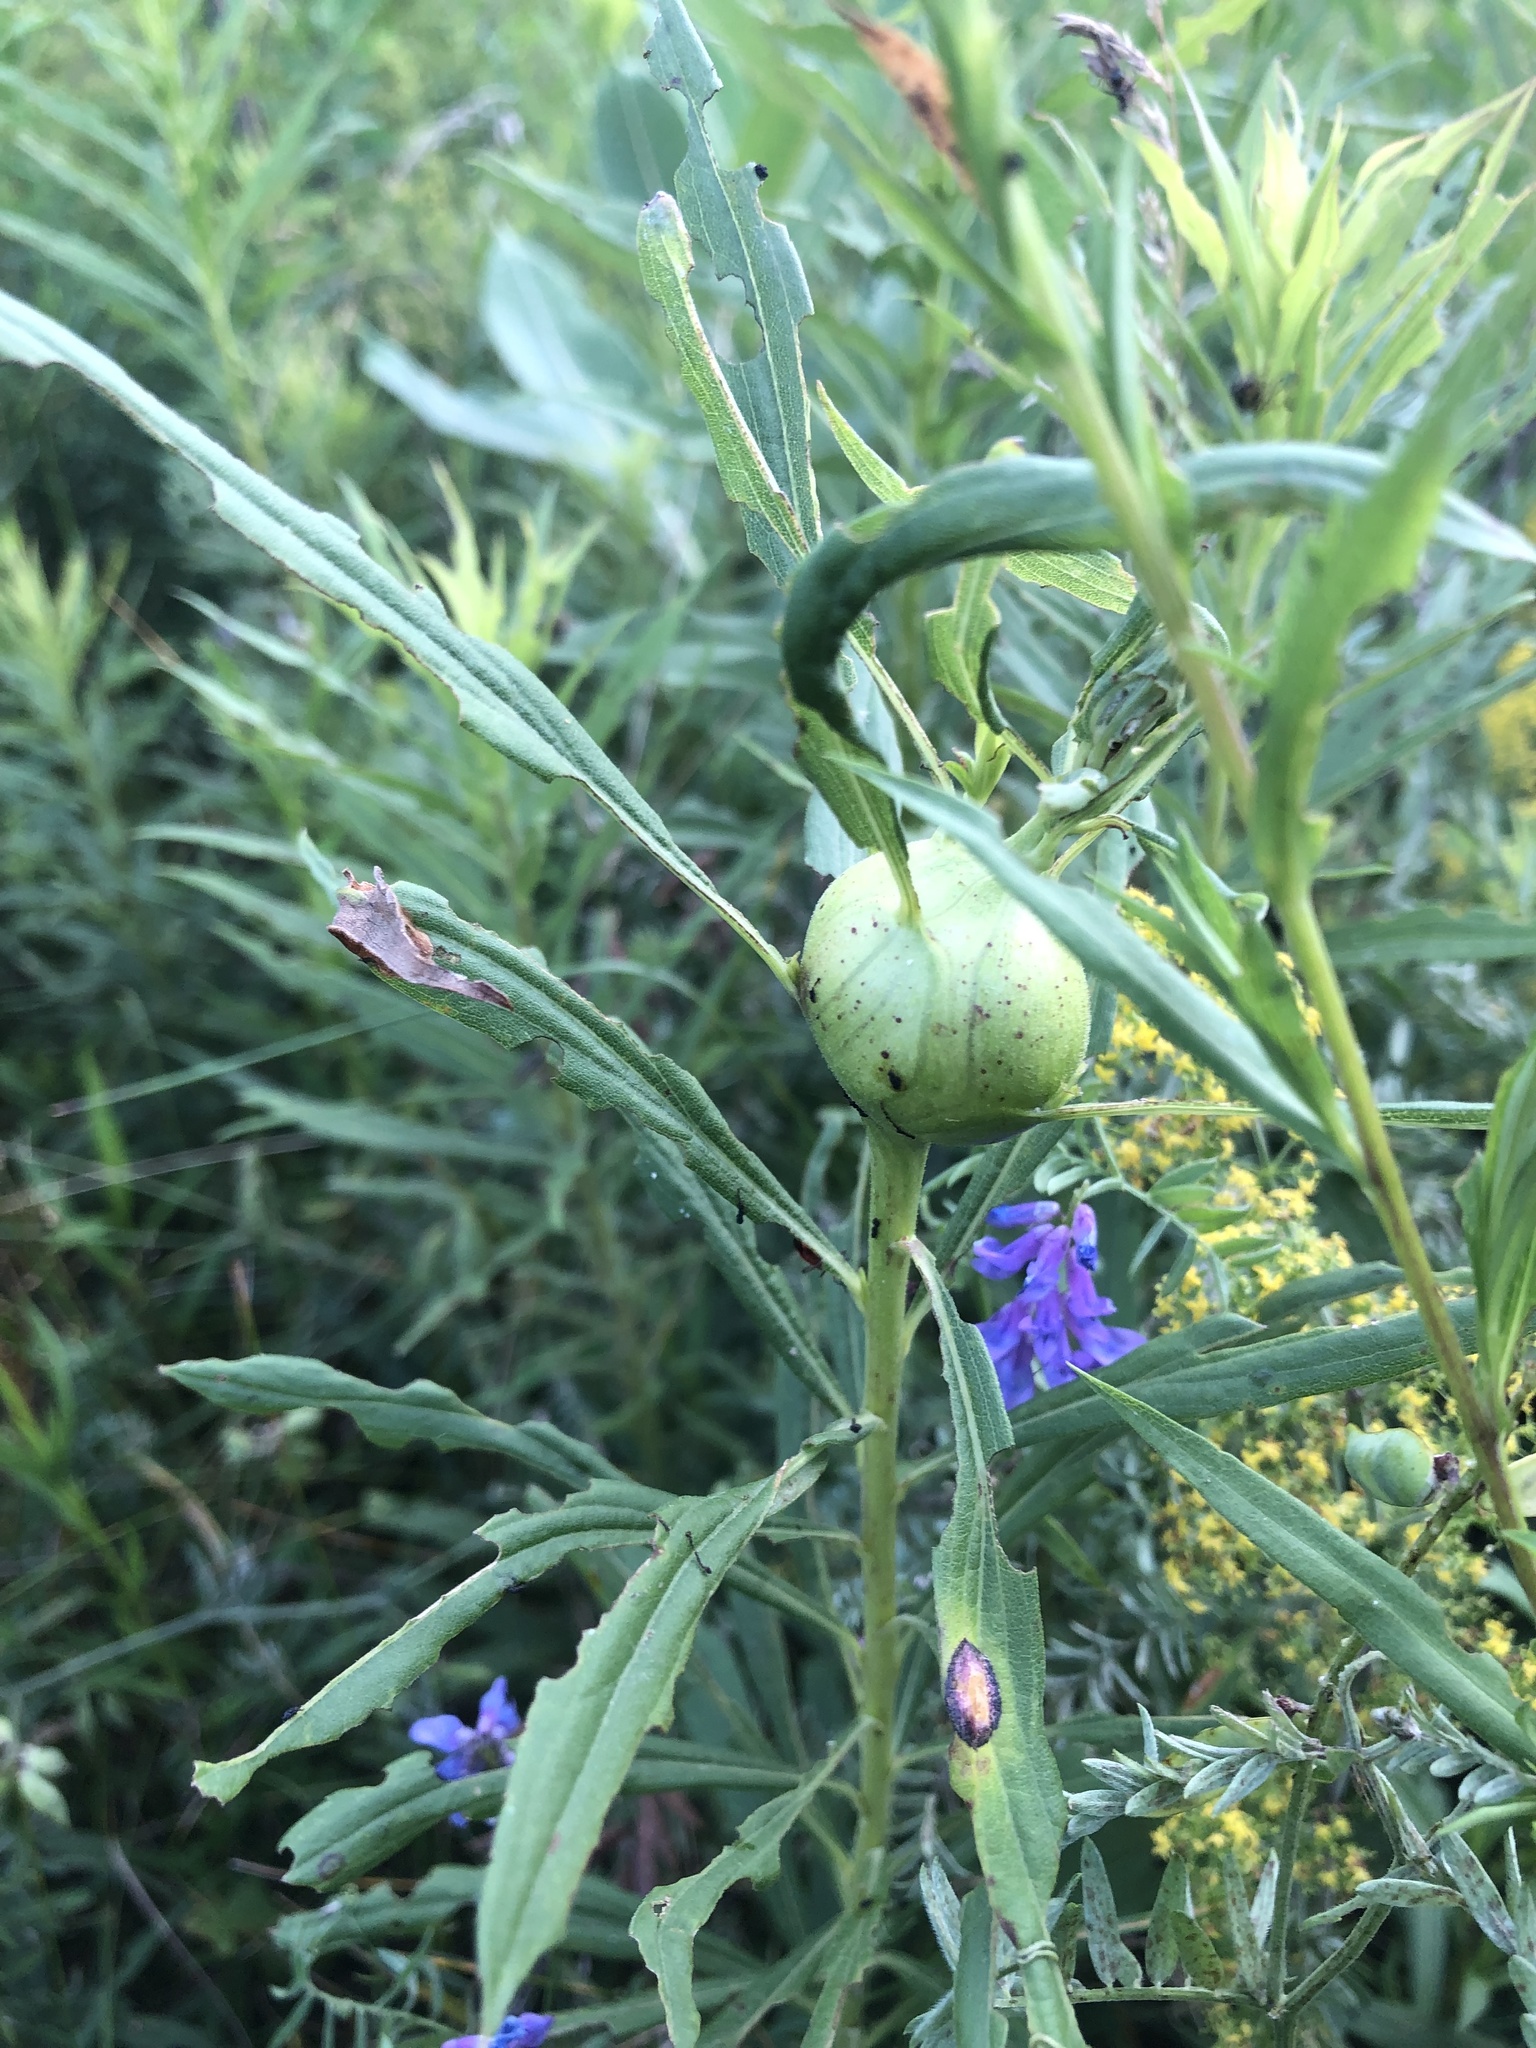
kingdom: Animalia
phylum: Arthropoda
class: Insecta
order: Diptera
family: Tephritidae
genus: Eurosta
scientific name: Eurosta solidaginis
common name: Goldenrod gall fly
